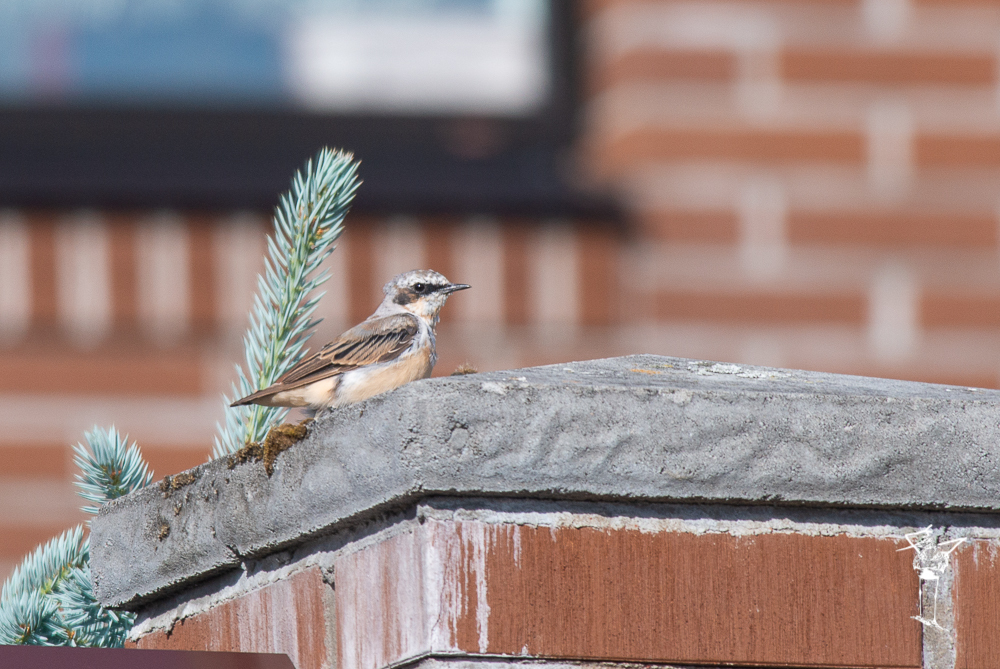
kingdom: Animalia
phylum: Chordata
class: Aves
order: Passeriformes
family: Muscicapidae
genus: Oenanthe
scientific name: Oenanthe oenanthe
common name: Northern wheatear
